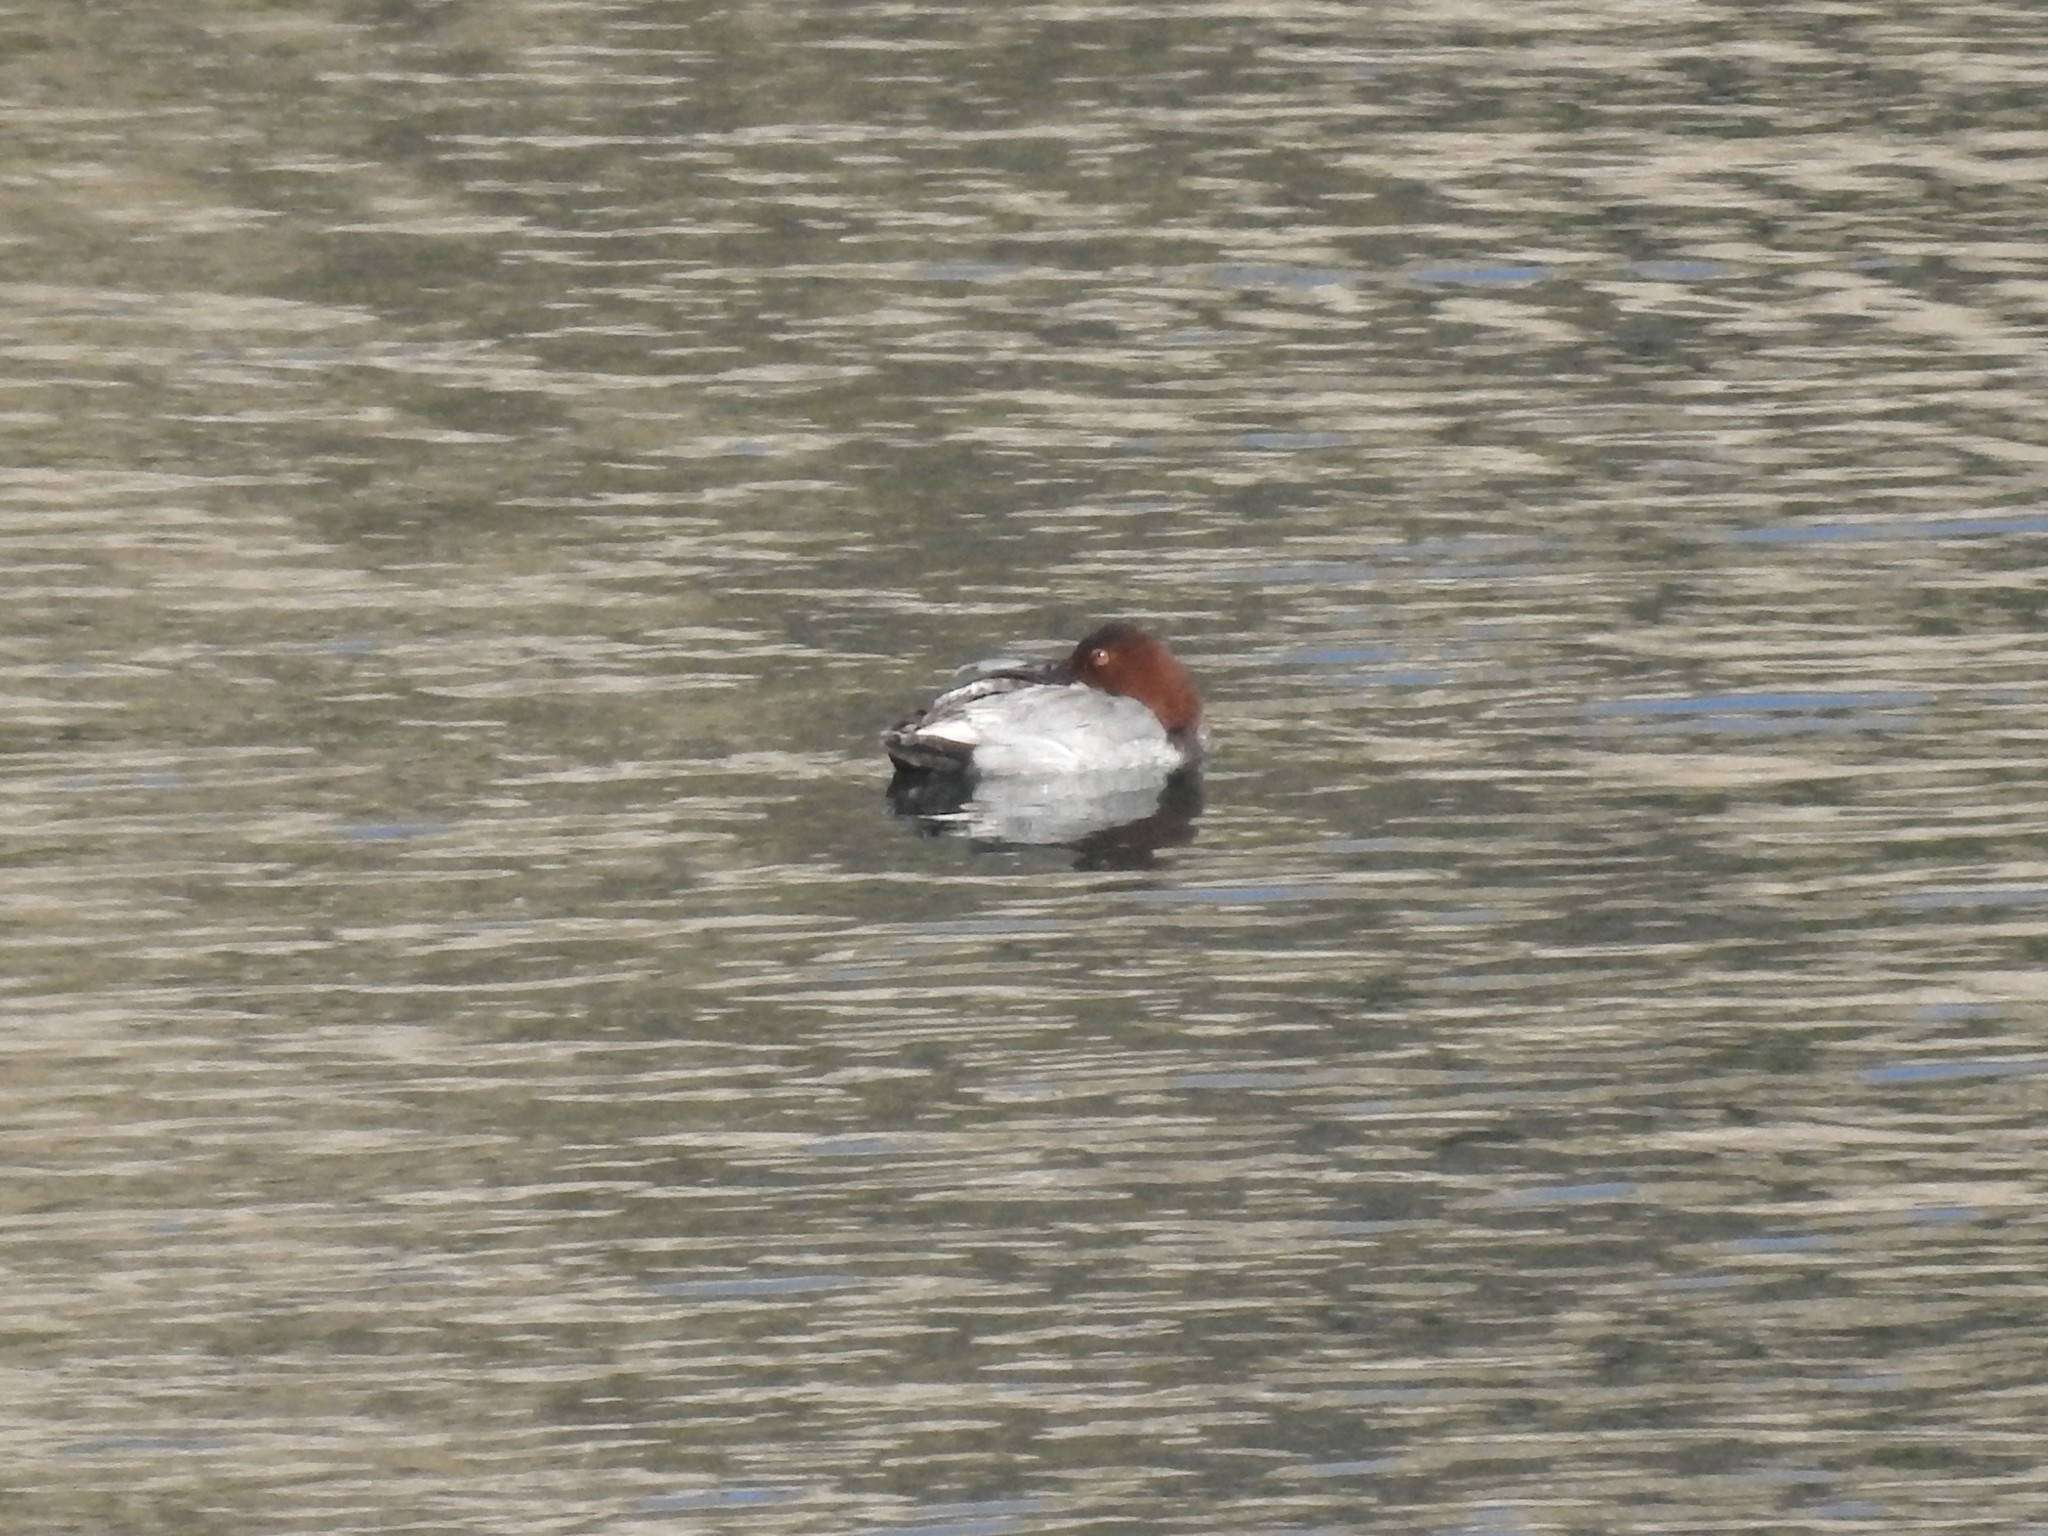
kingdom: Animalia
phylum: Chordata
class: Aves
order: Anseriformes
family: Anatidae
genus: Aythya
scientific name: Aythya ferina
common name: Common pochard
